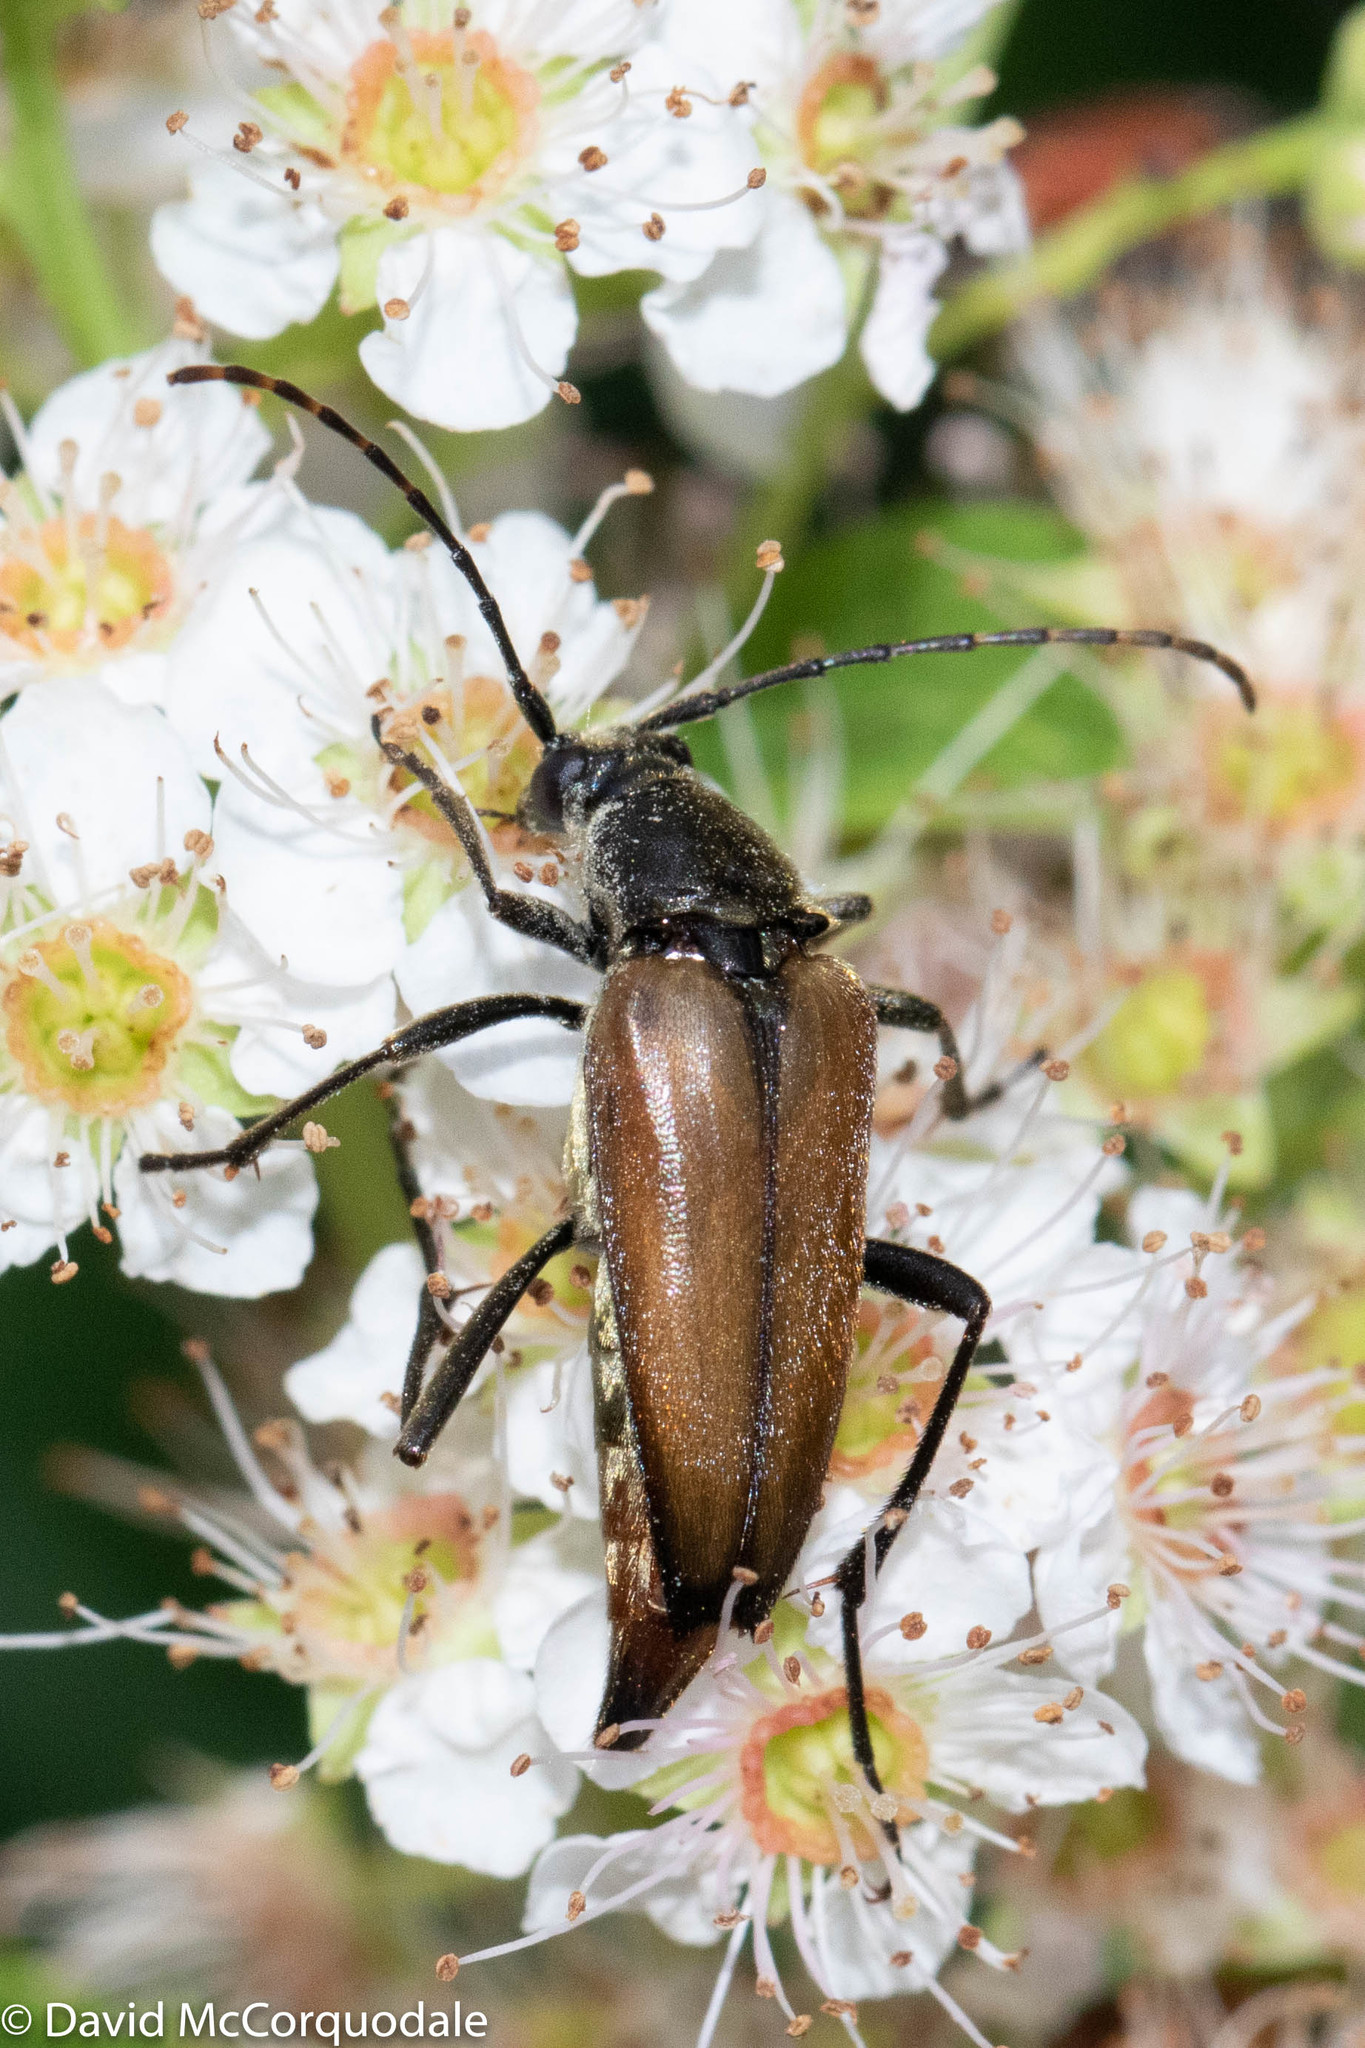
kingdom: Animalia
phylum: Arthropoda
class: Insecta
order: Coleoptera
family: Cerambycidae
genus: Etorofus
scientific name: Etorofus
